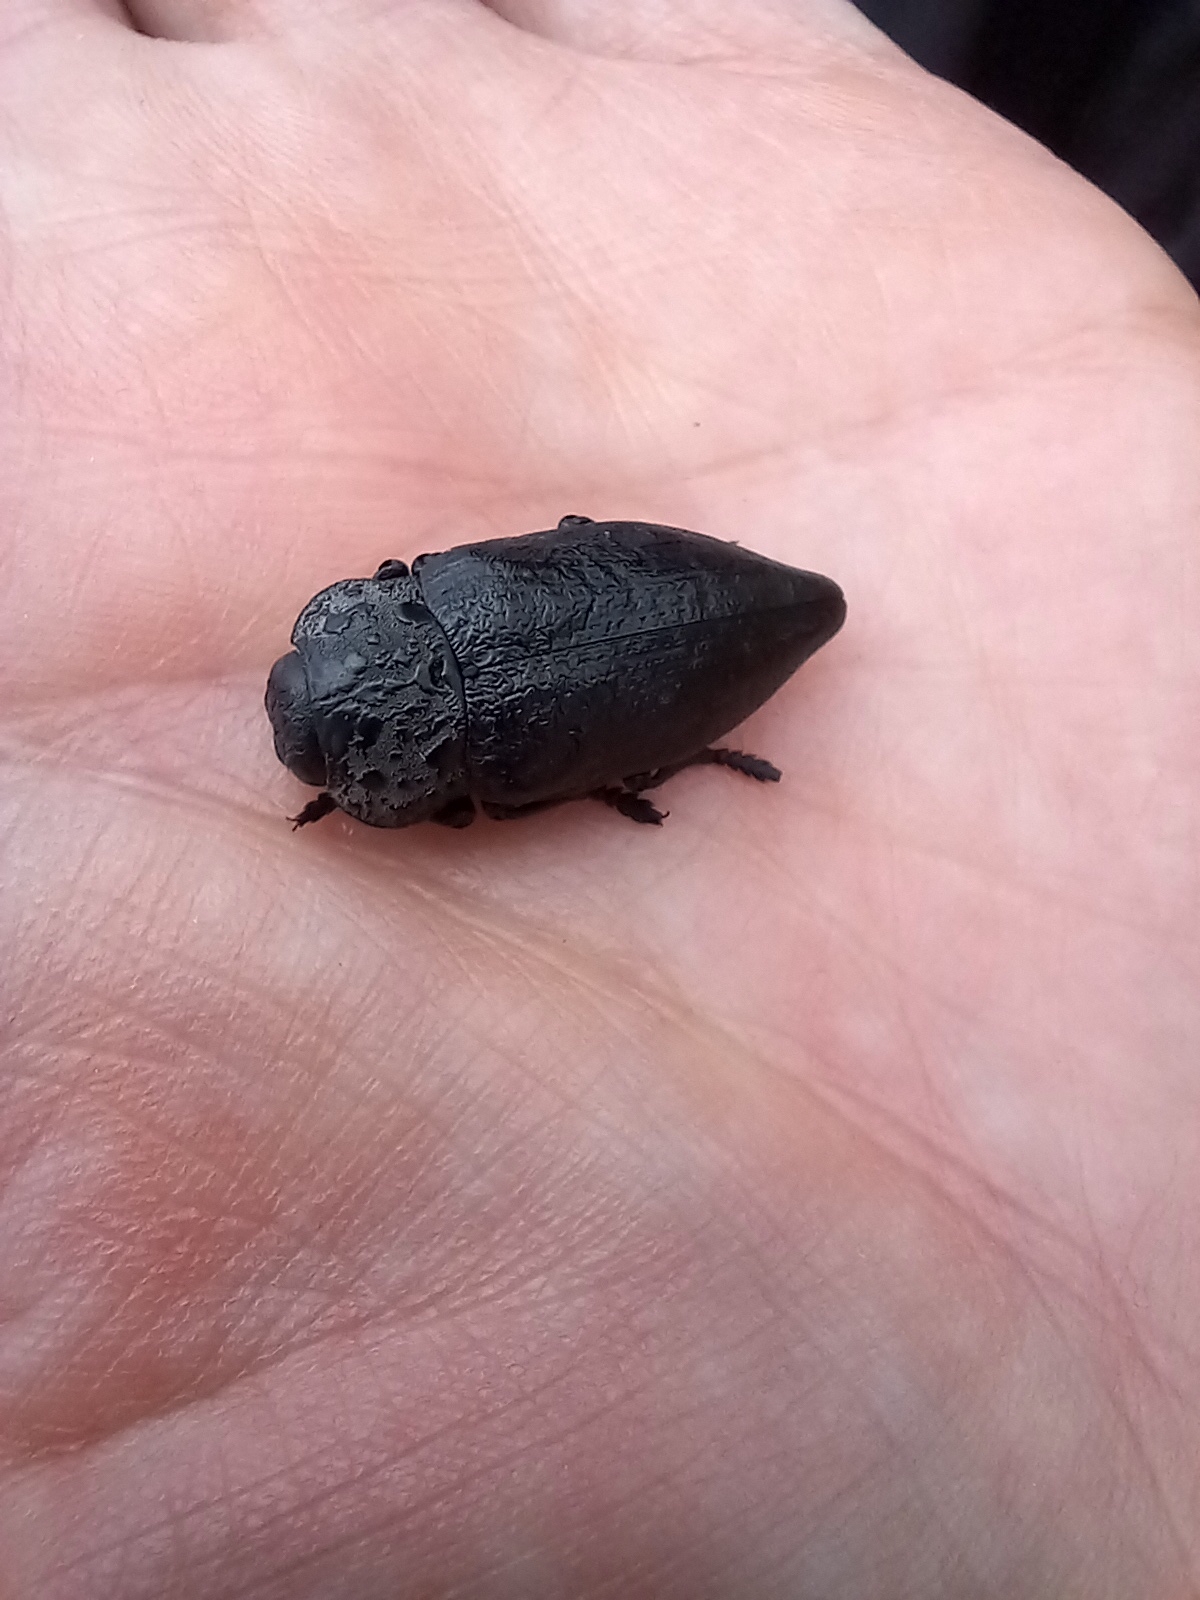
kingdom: Animalia
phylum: Arthropoda
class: Insecta
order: Coleoptera
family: Buprestidae
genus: Capnodis
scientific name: Capnodis tenebrionis
